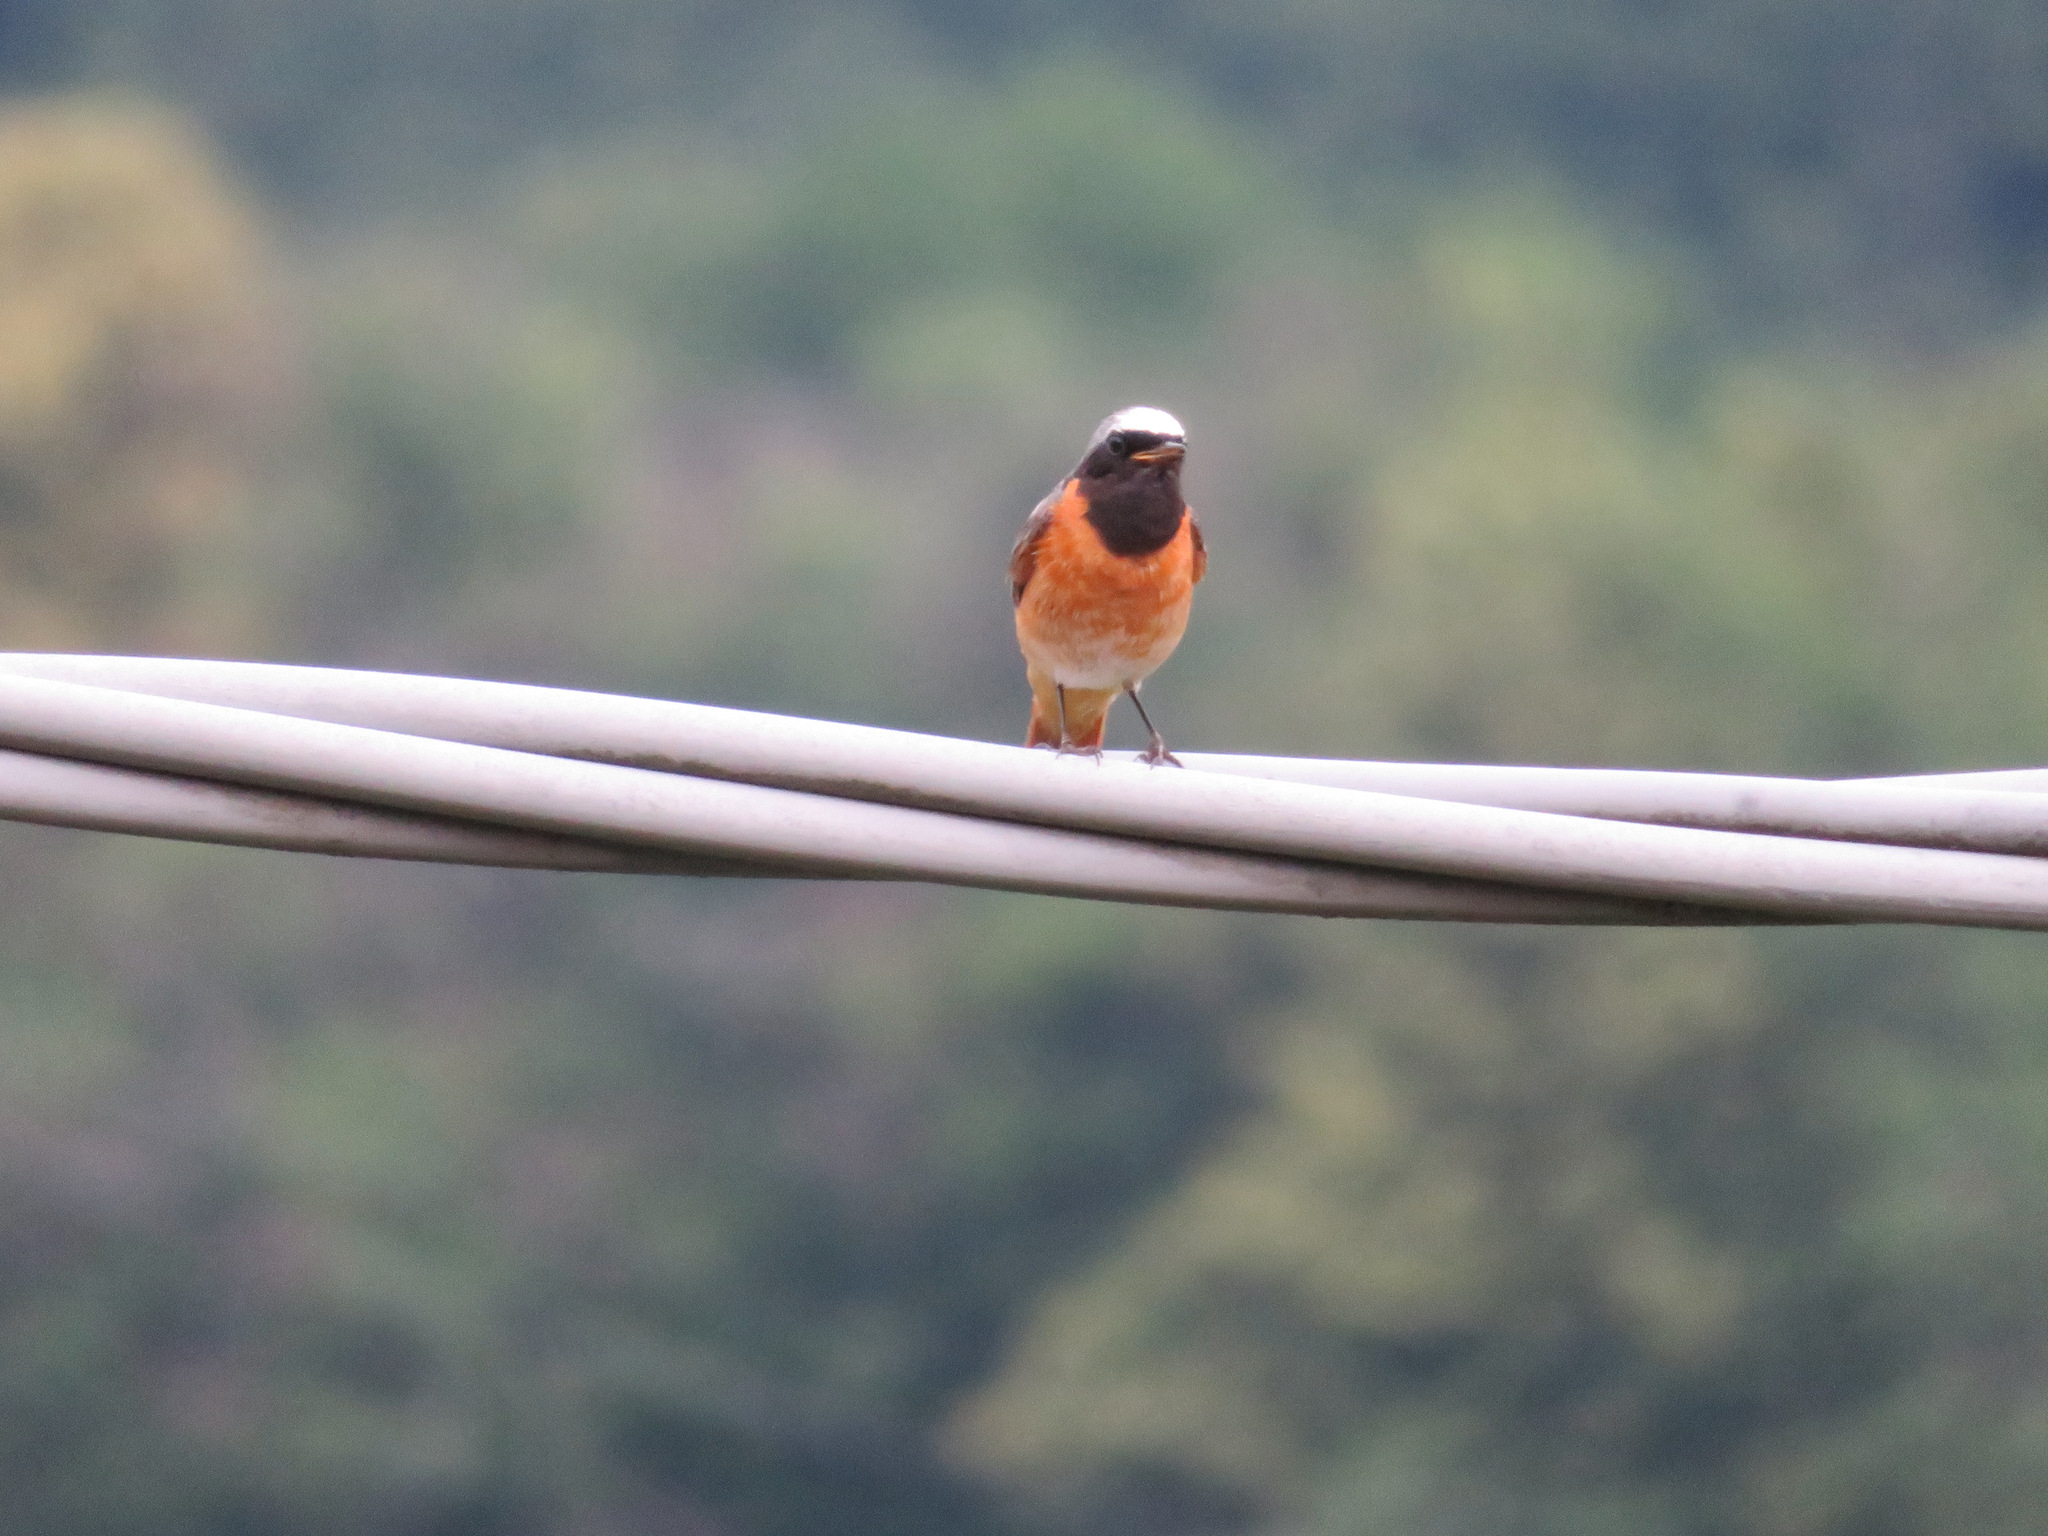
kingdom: Animalia
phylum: Chordata
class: Aves
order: Passeriformes
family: Muscicapidae
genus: Phoenicurus
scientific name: Phoenicurus phoenicurus
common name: Common redstart
